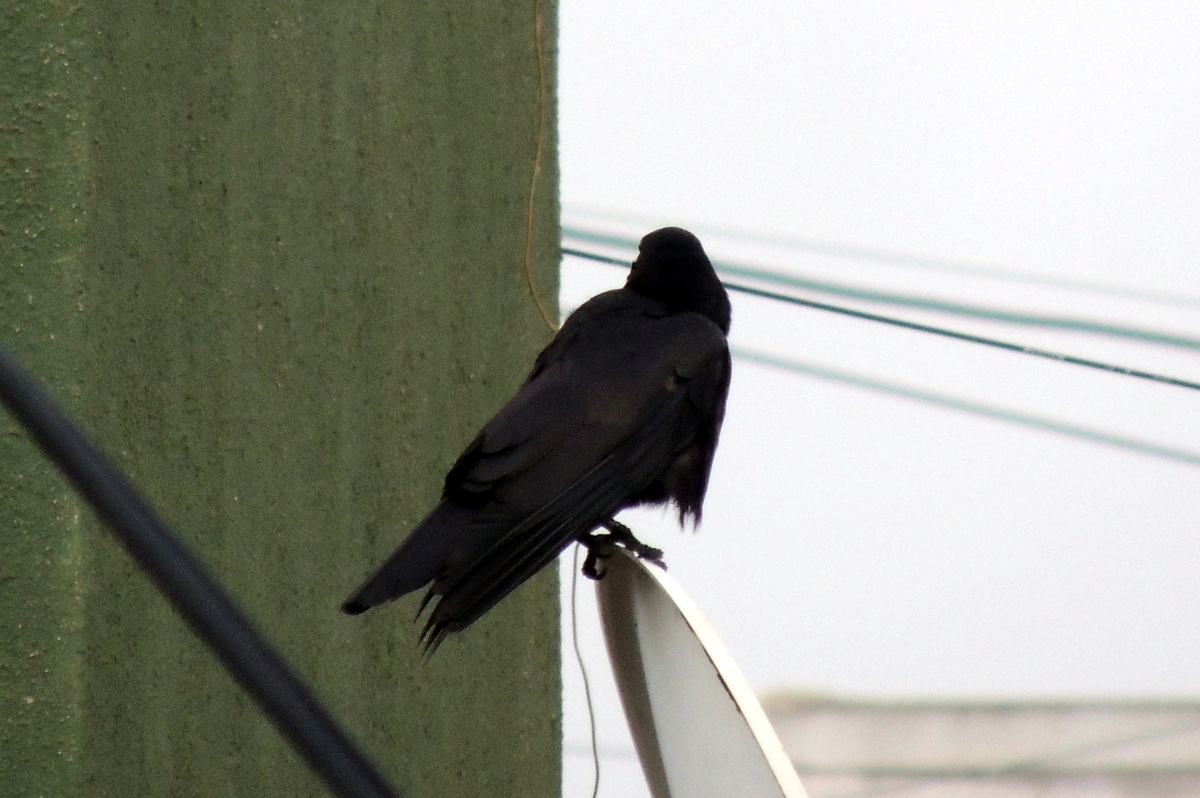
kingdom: Animalia
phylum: Chordata
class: Aves
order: Passeriformes
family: Corvidae
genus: Corvus
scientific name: Corvus macrorhynchos
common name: Large-billed crow
